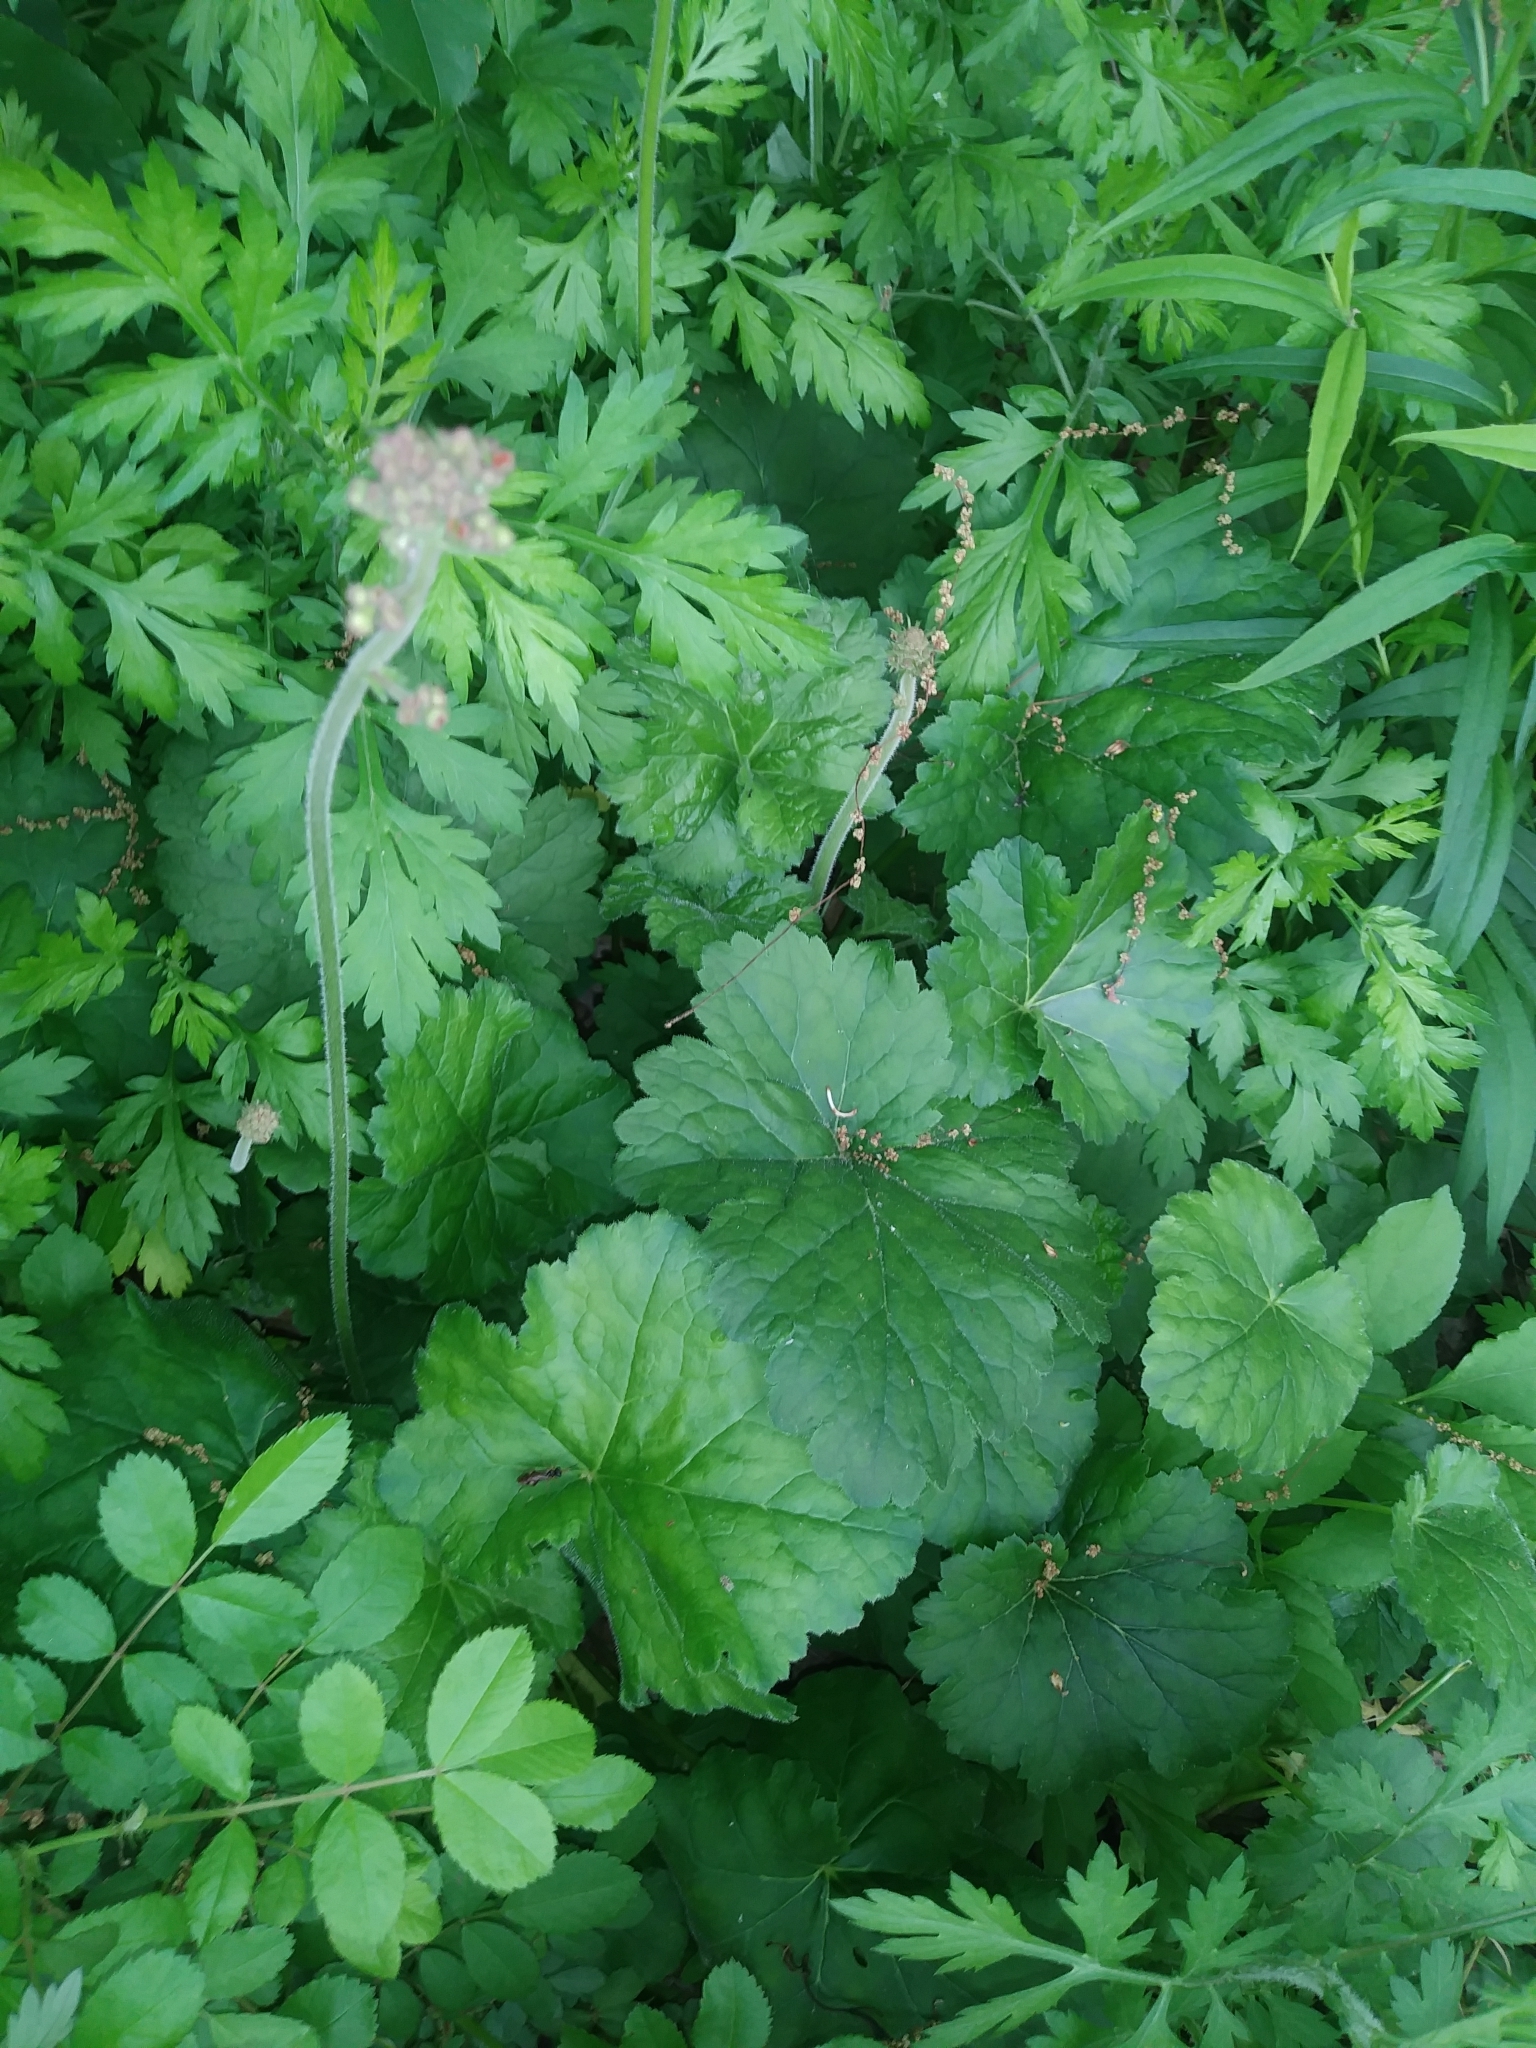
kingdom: Plantae
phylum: Tracheophyta
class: Magnoliopsida
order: Saxifragales
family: Saxifragaceae
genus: Heuchera
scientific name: Heuchera americana
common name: Alumroot
